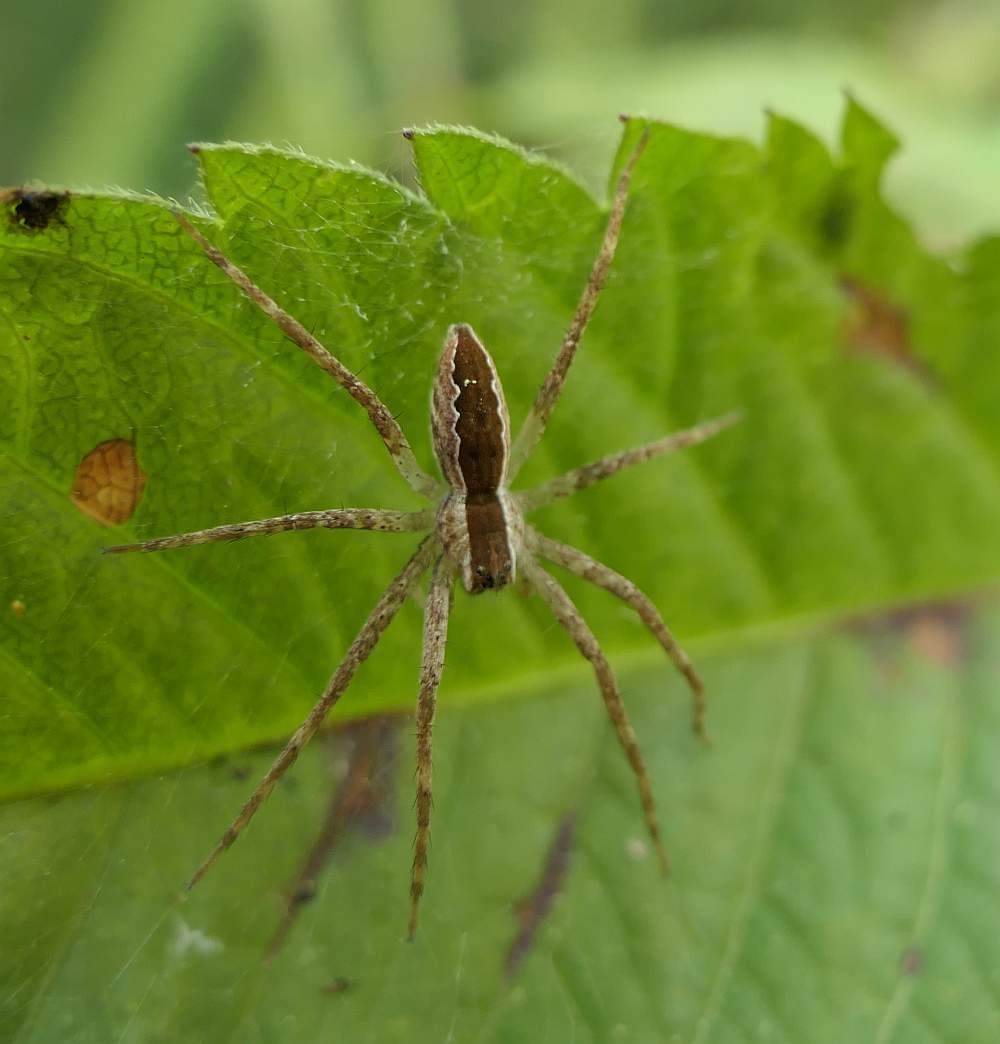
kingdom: Animalia
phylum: Arthropoda
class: Arachnida
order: Araneae
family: Pisauridae
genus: Pisaurina
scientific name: Pisaurina mira
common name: American nursery web spider
